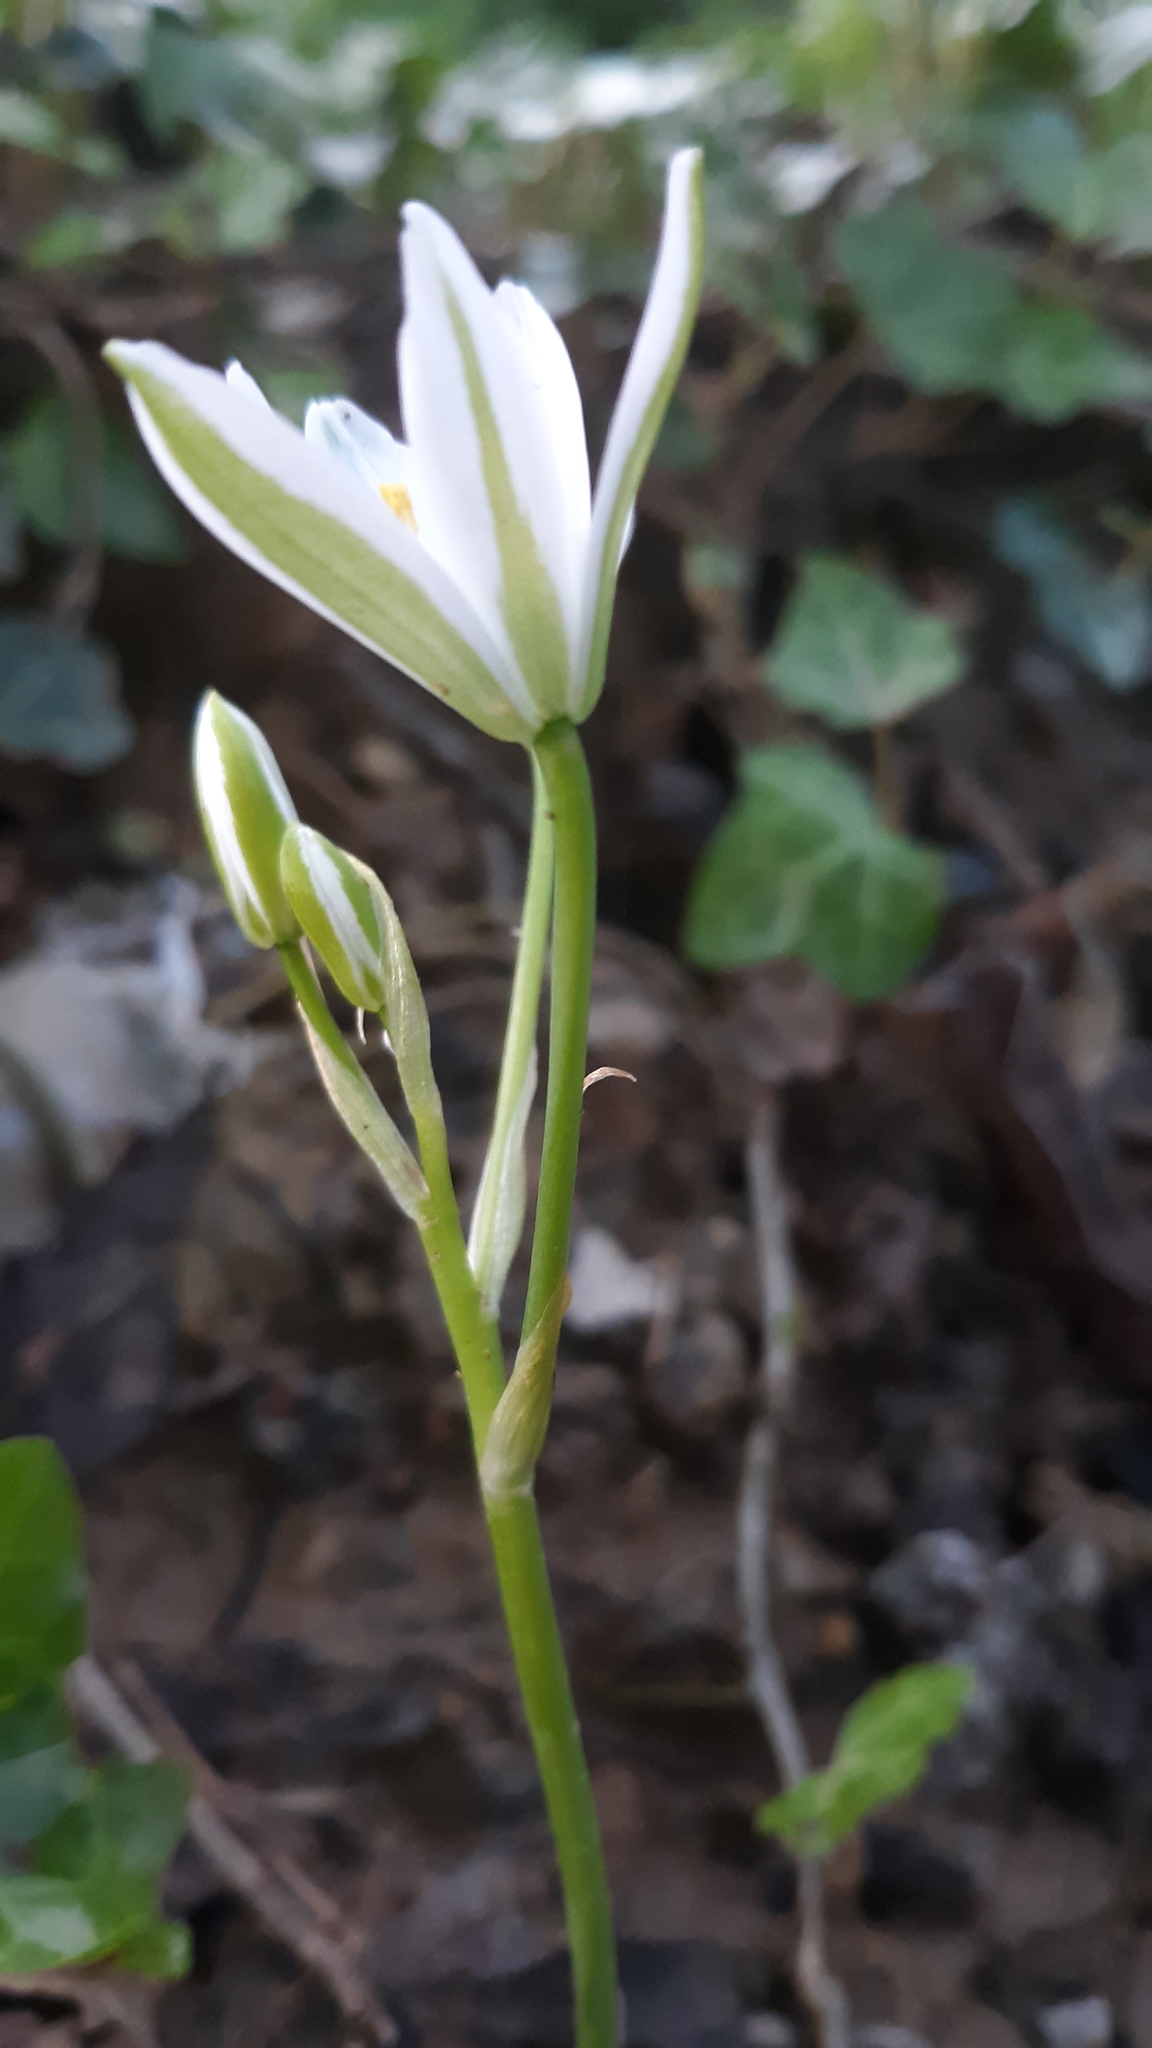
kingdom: Plantae
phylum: Tracheophyta
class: Liliopsida
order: Asparagales
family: Asparagaceae
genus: Ornithogalum
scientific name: Ornithogalum umbellatum
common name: Garden star-of-bethlehem
